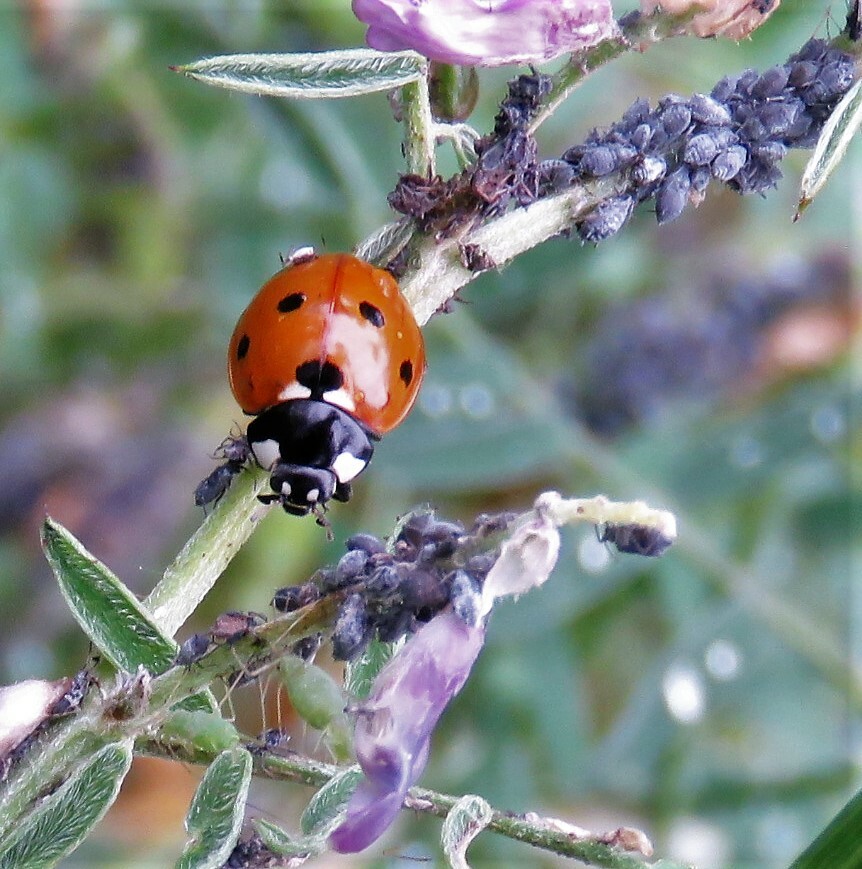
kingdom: Animalia
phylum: Arthropoda
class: Insecta
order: Coleoptera
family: Coccinellidae
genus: Coccinella
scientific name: Coccinella septempunctata
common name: Sevenspotted lady beetle
